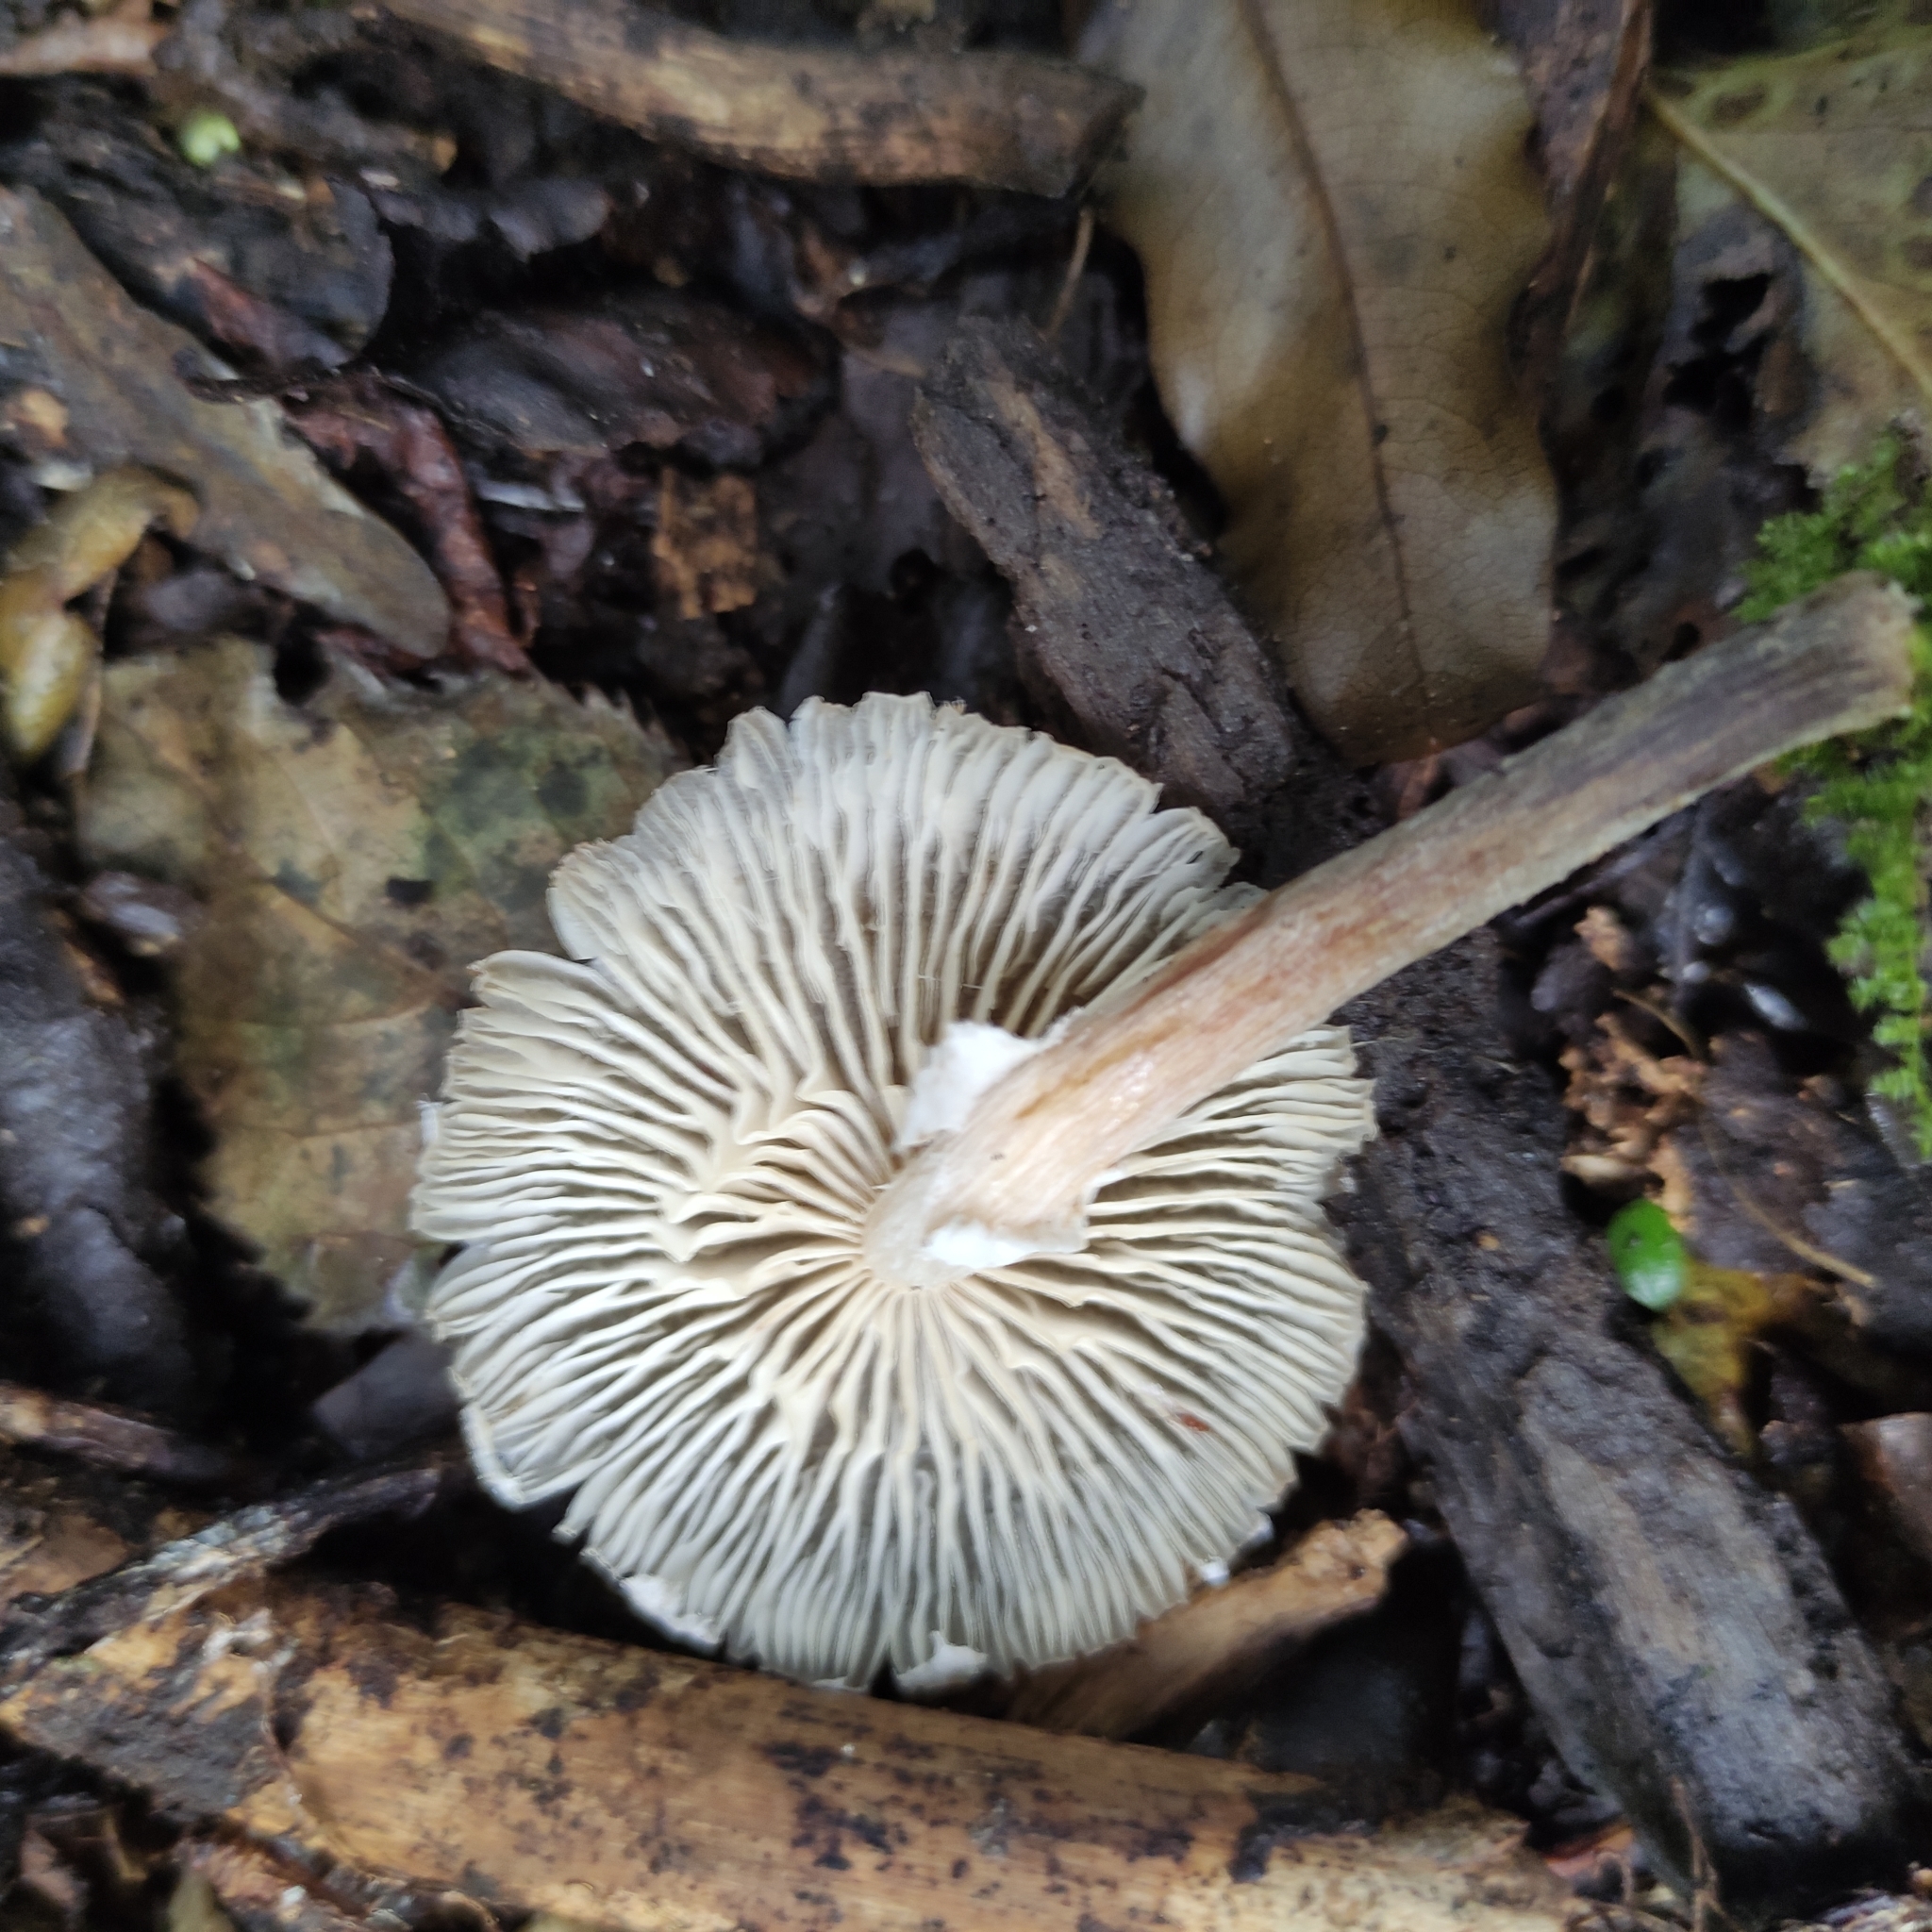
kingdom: Fungi
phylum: Basidiomycota
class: Agaricomycetes
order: Agaricales
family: Physalacriaceae
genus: Armillaria
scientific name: Armillaria novae-zelandiae
